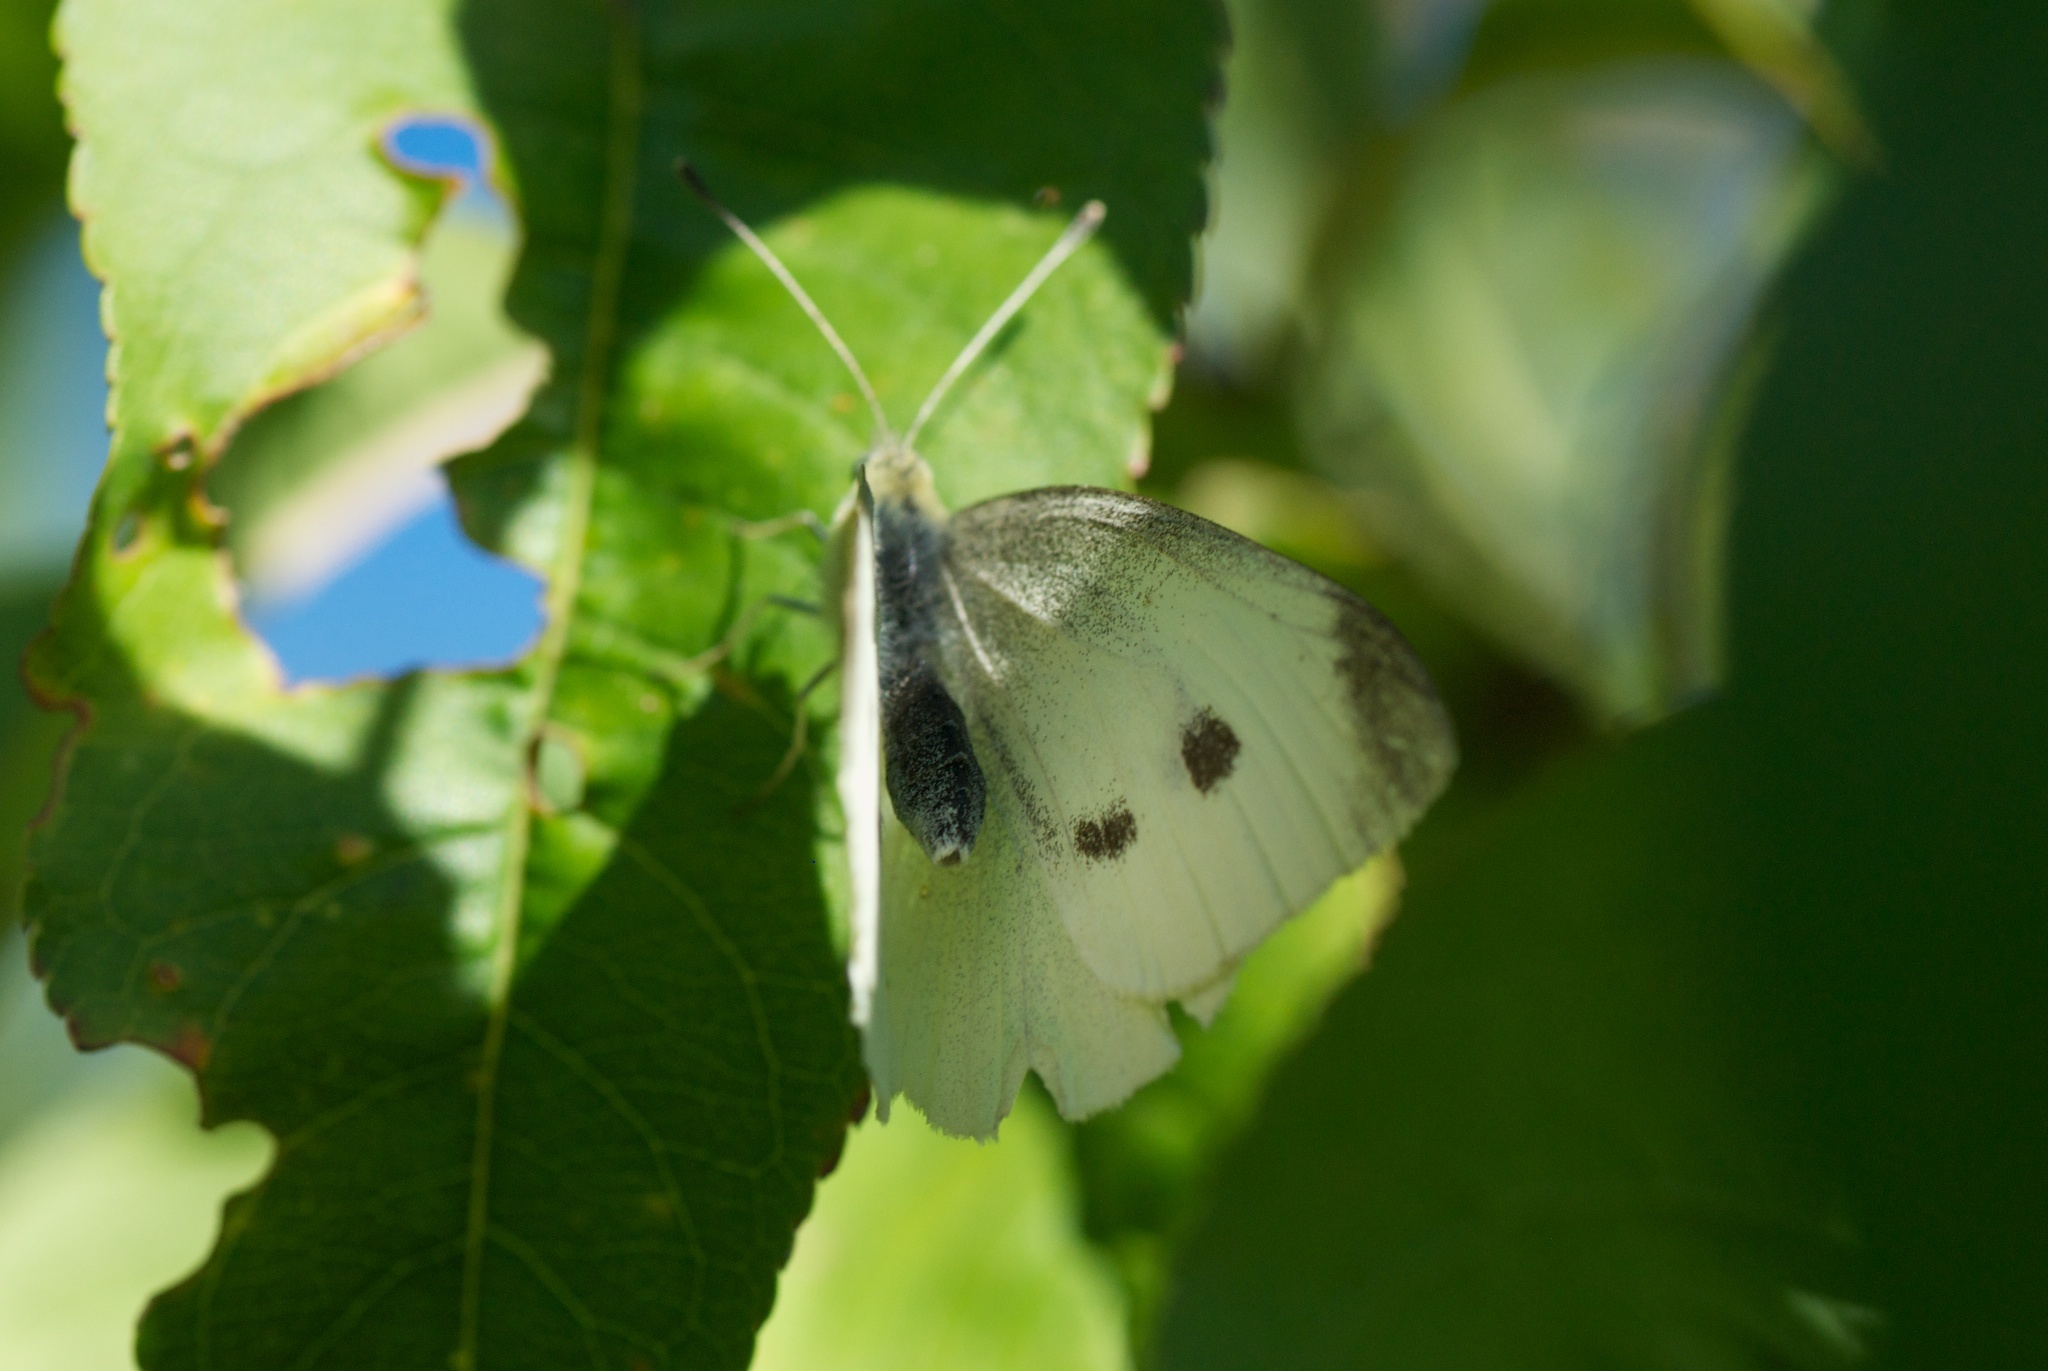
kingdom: Animalia
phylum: Arthropoda
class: Insecta
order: Lepidoptera
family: Pieridae
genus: Pieris
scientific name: Pieris rapae
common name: Small white
